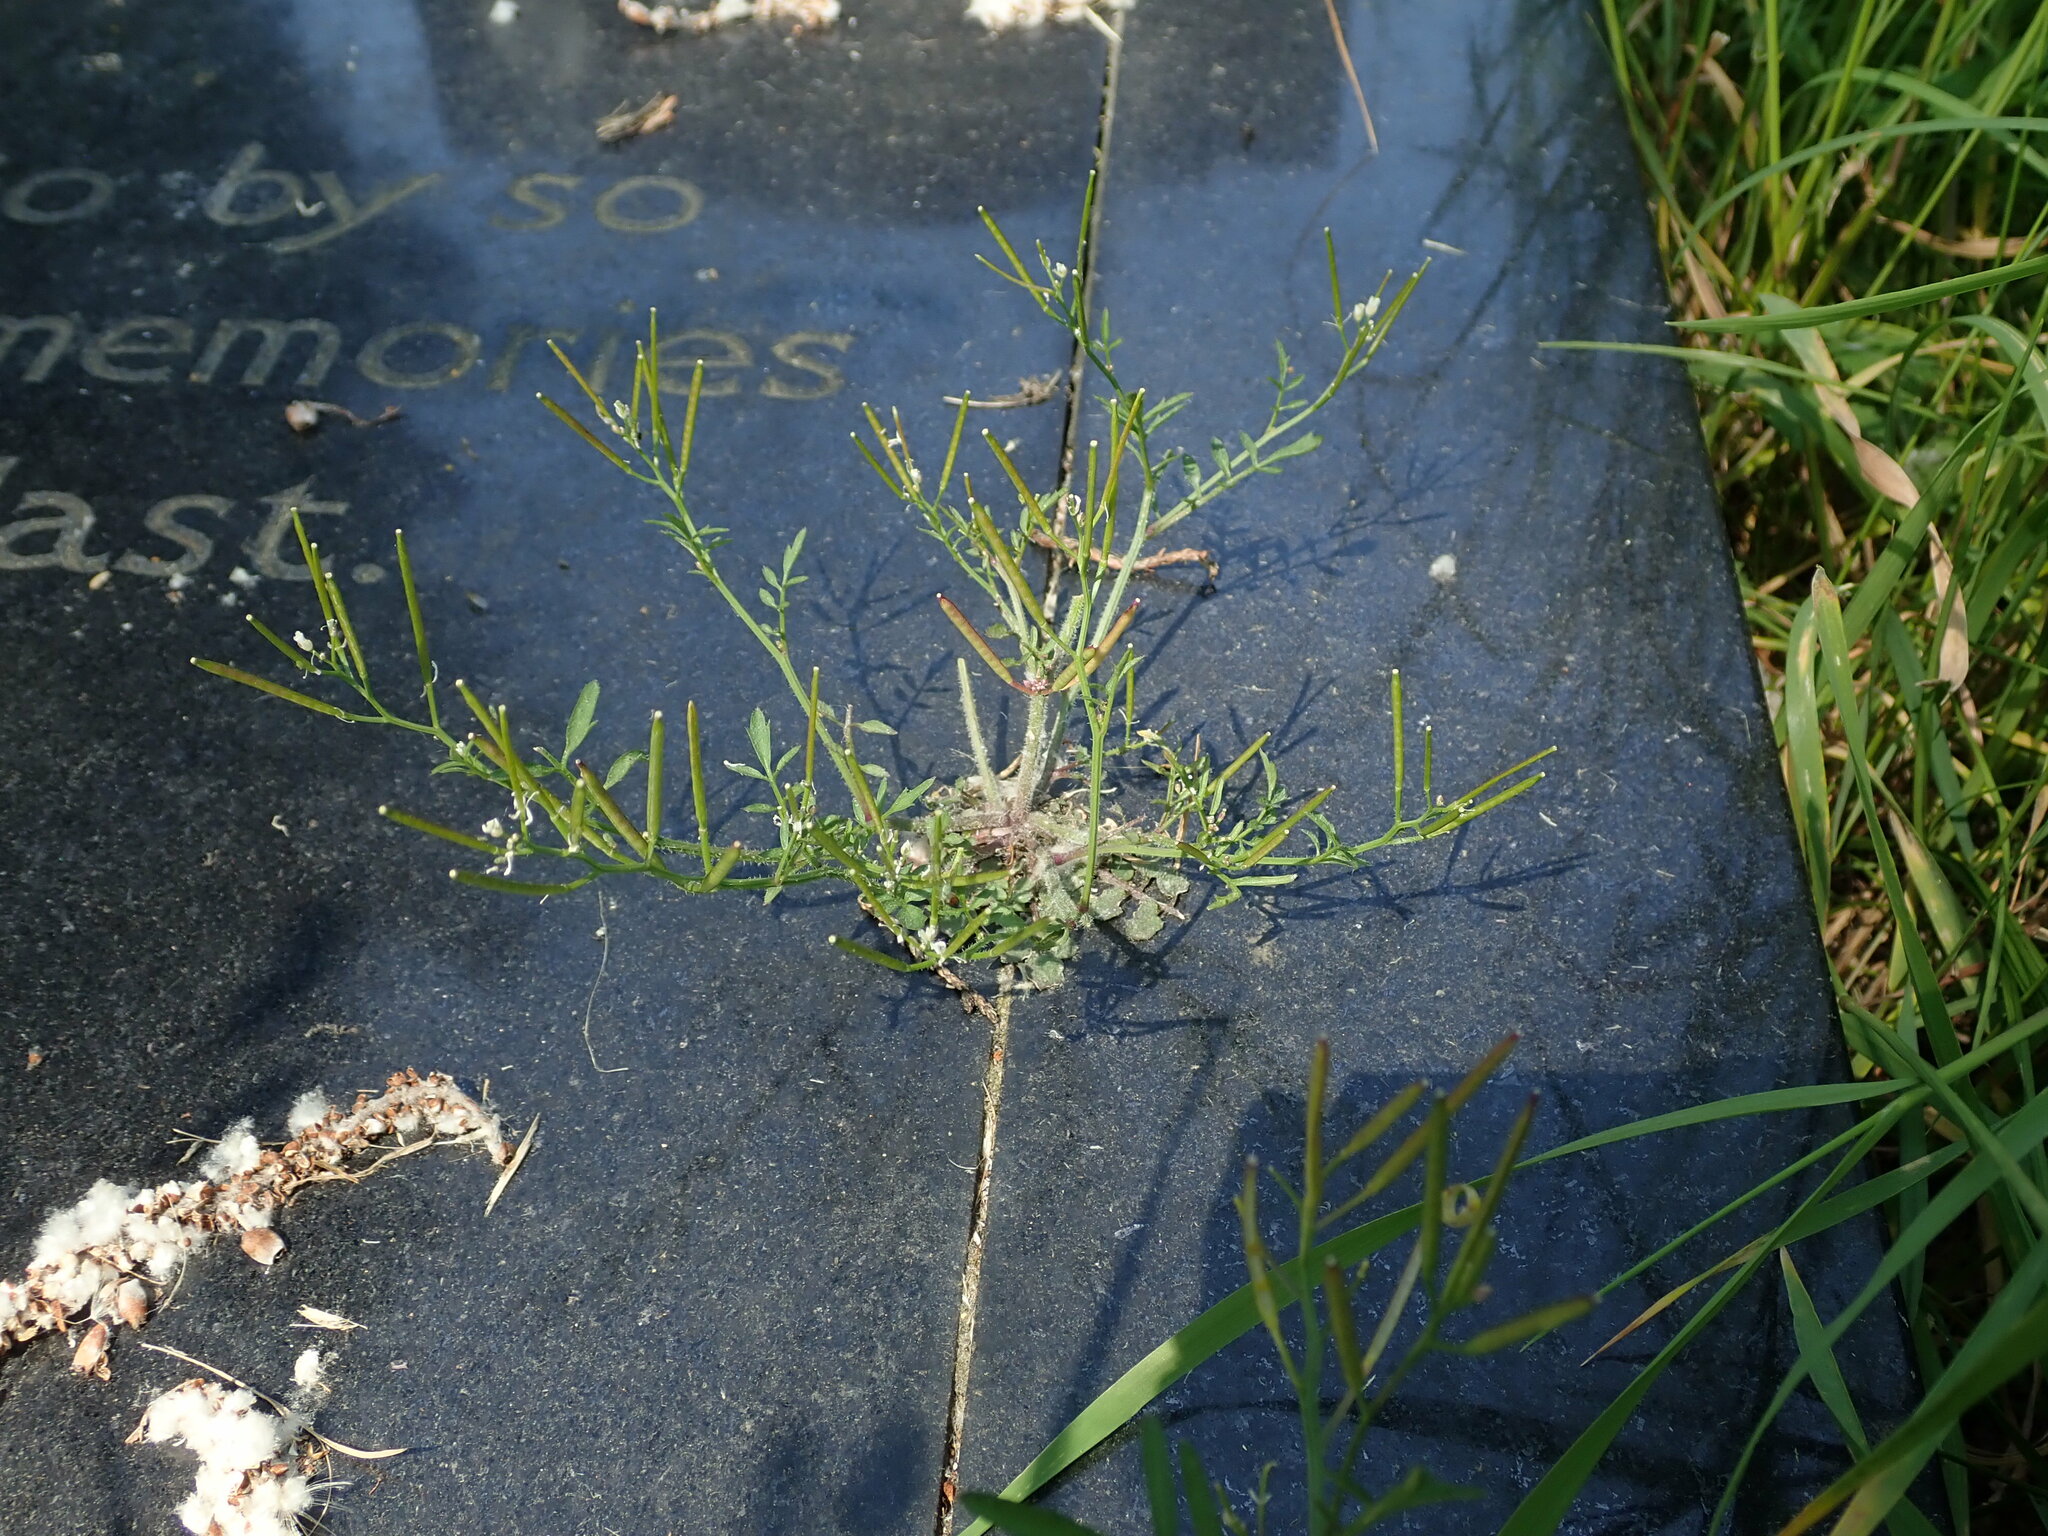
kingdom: Plantae
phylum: Tracheophyta
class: Magnoliopsida
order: Brassicales
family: Brassicaceae
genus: Cardamine
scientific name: Cardamine flexuosa
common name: Woodland bittercress
